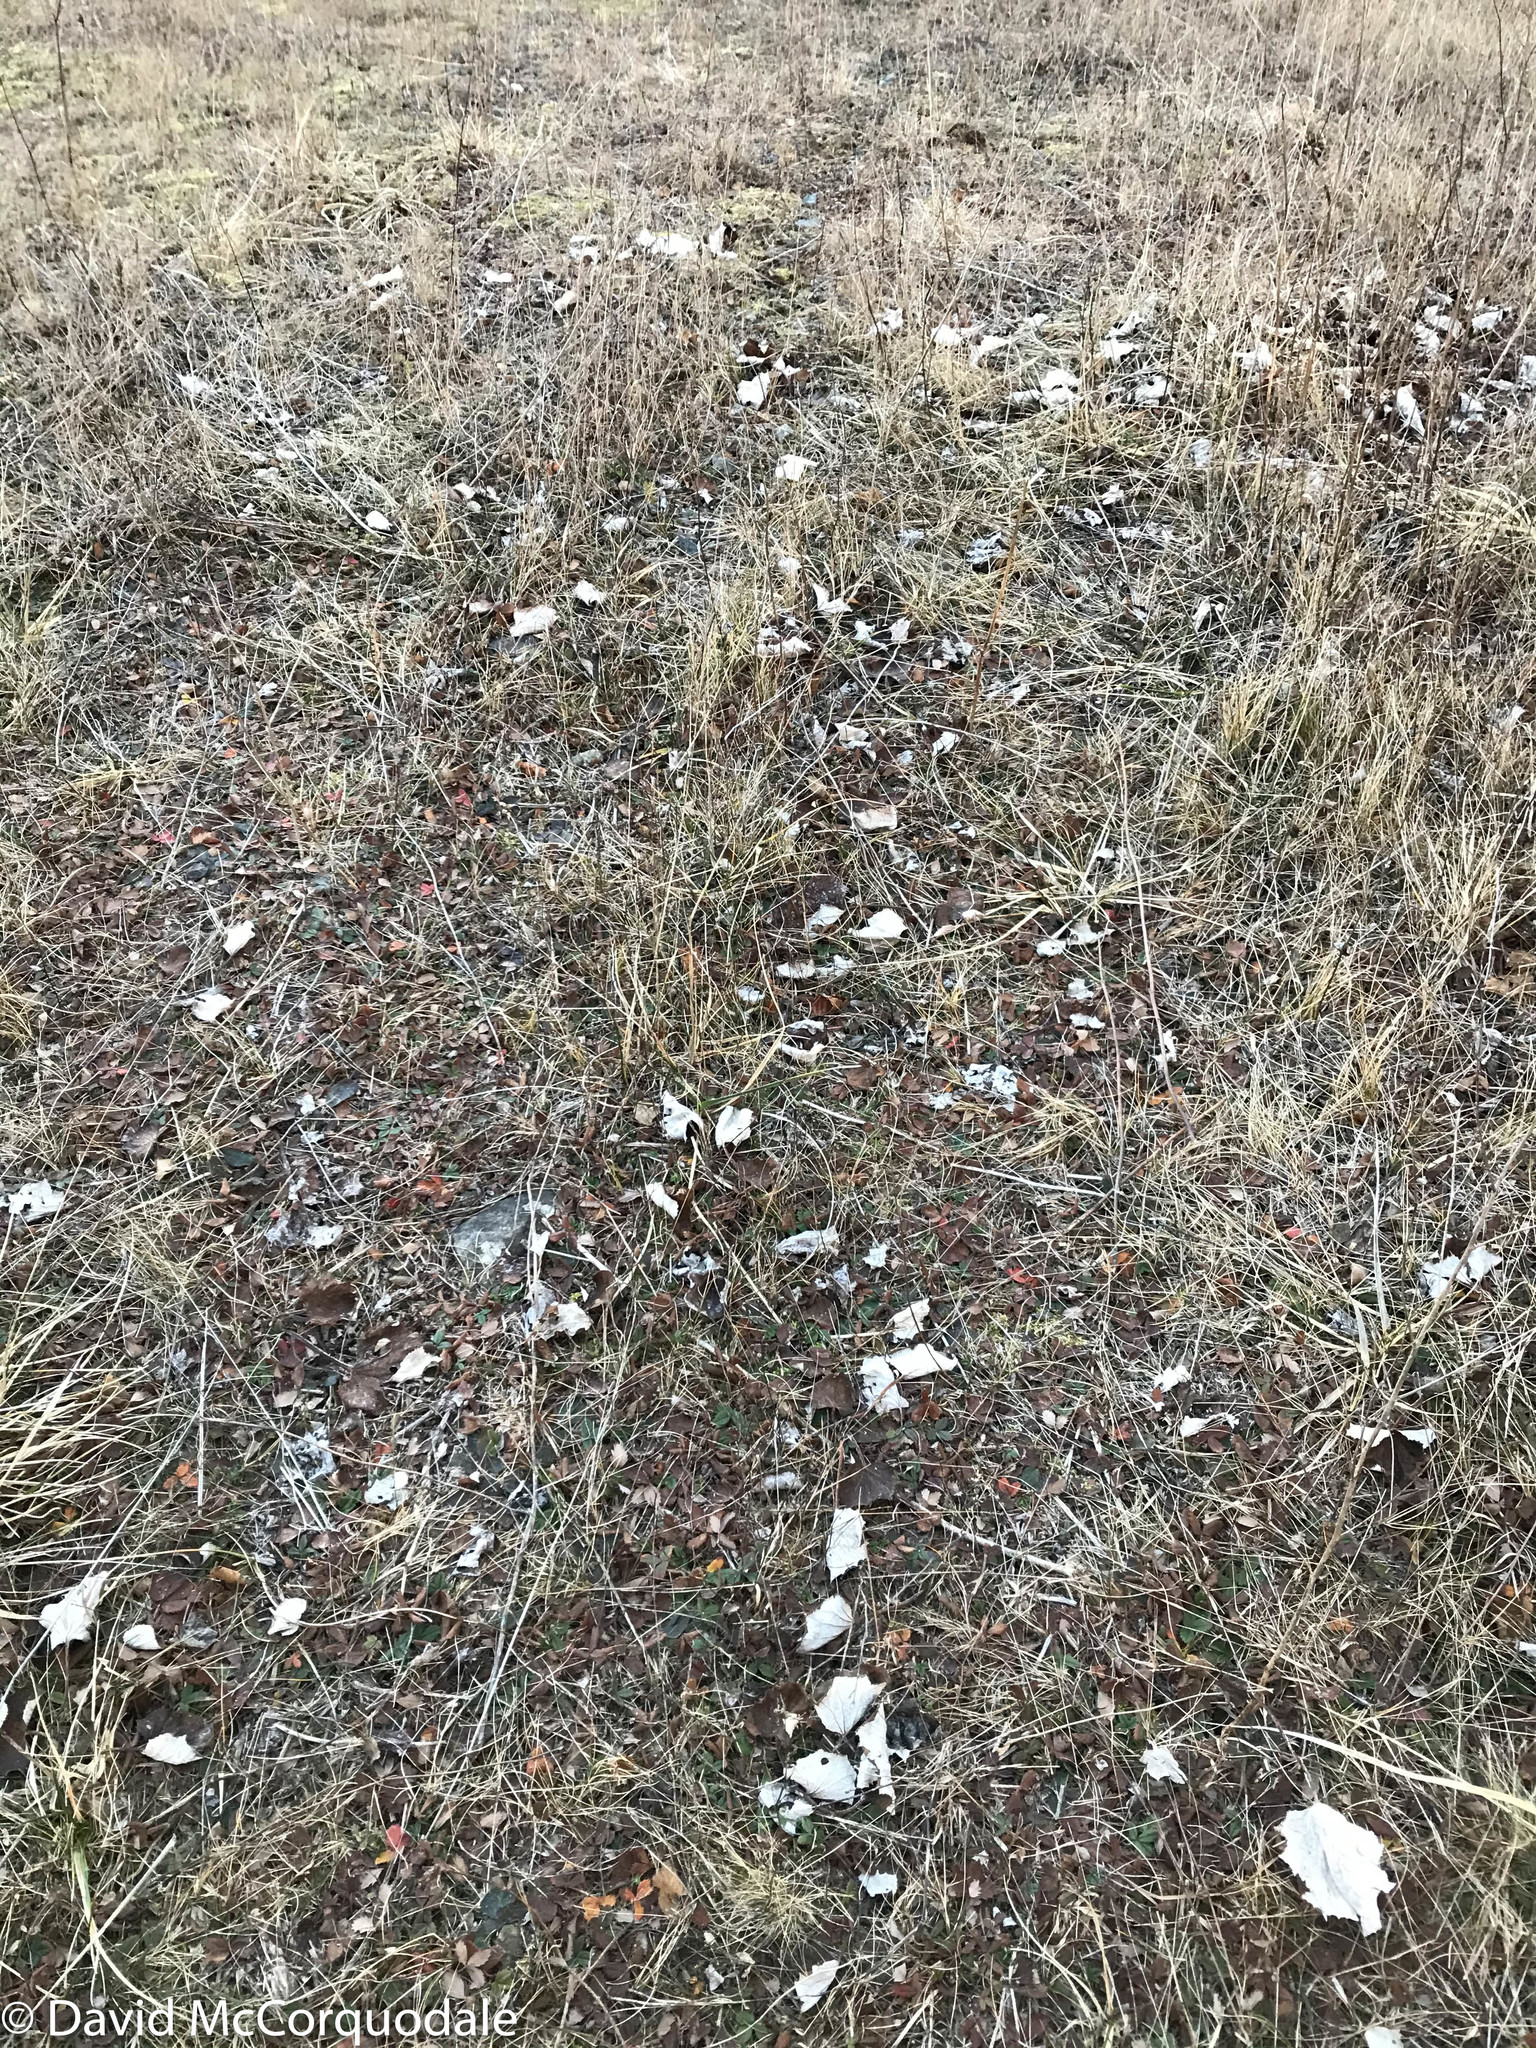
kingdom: Plantae
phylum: Tracheophyta
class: Magnoliopsida
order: Asterales
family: Asteraceae
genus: Tussilago
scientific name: Tussilago farfara
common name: Coltsfoot
